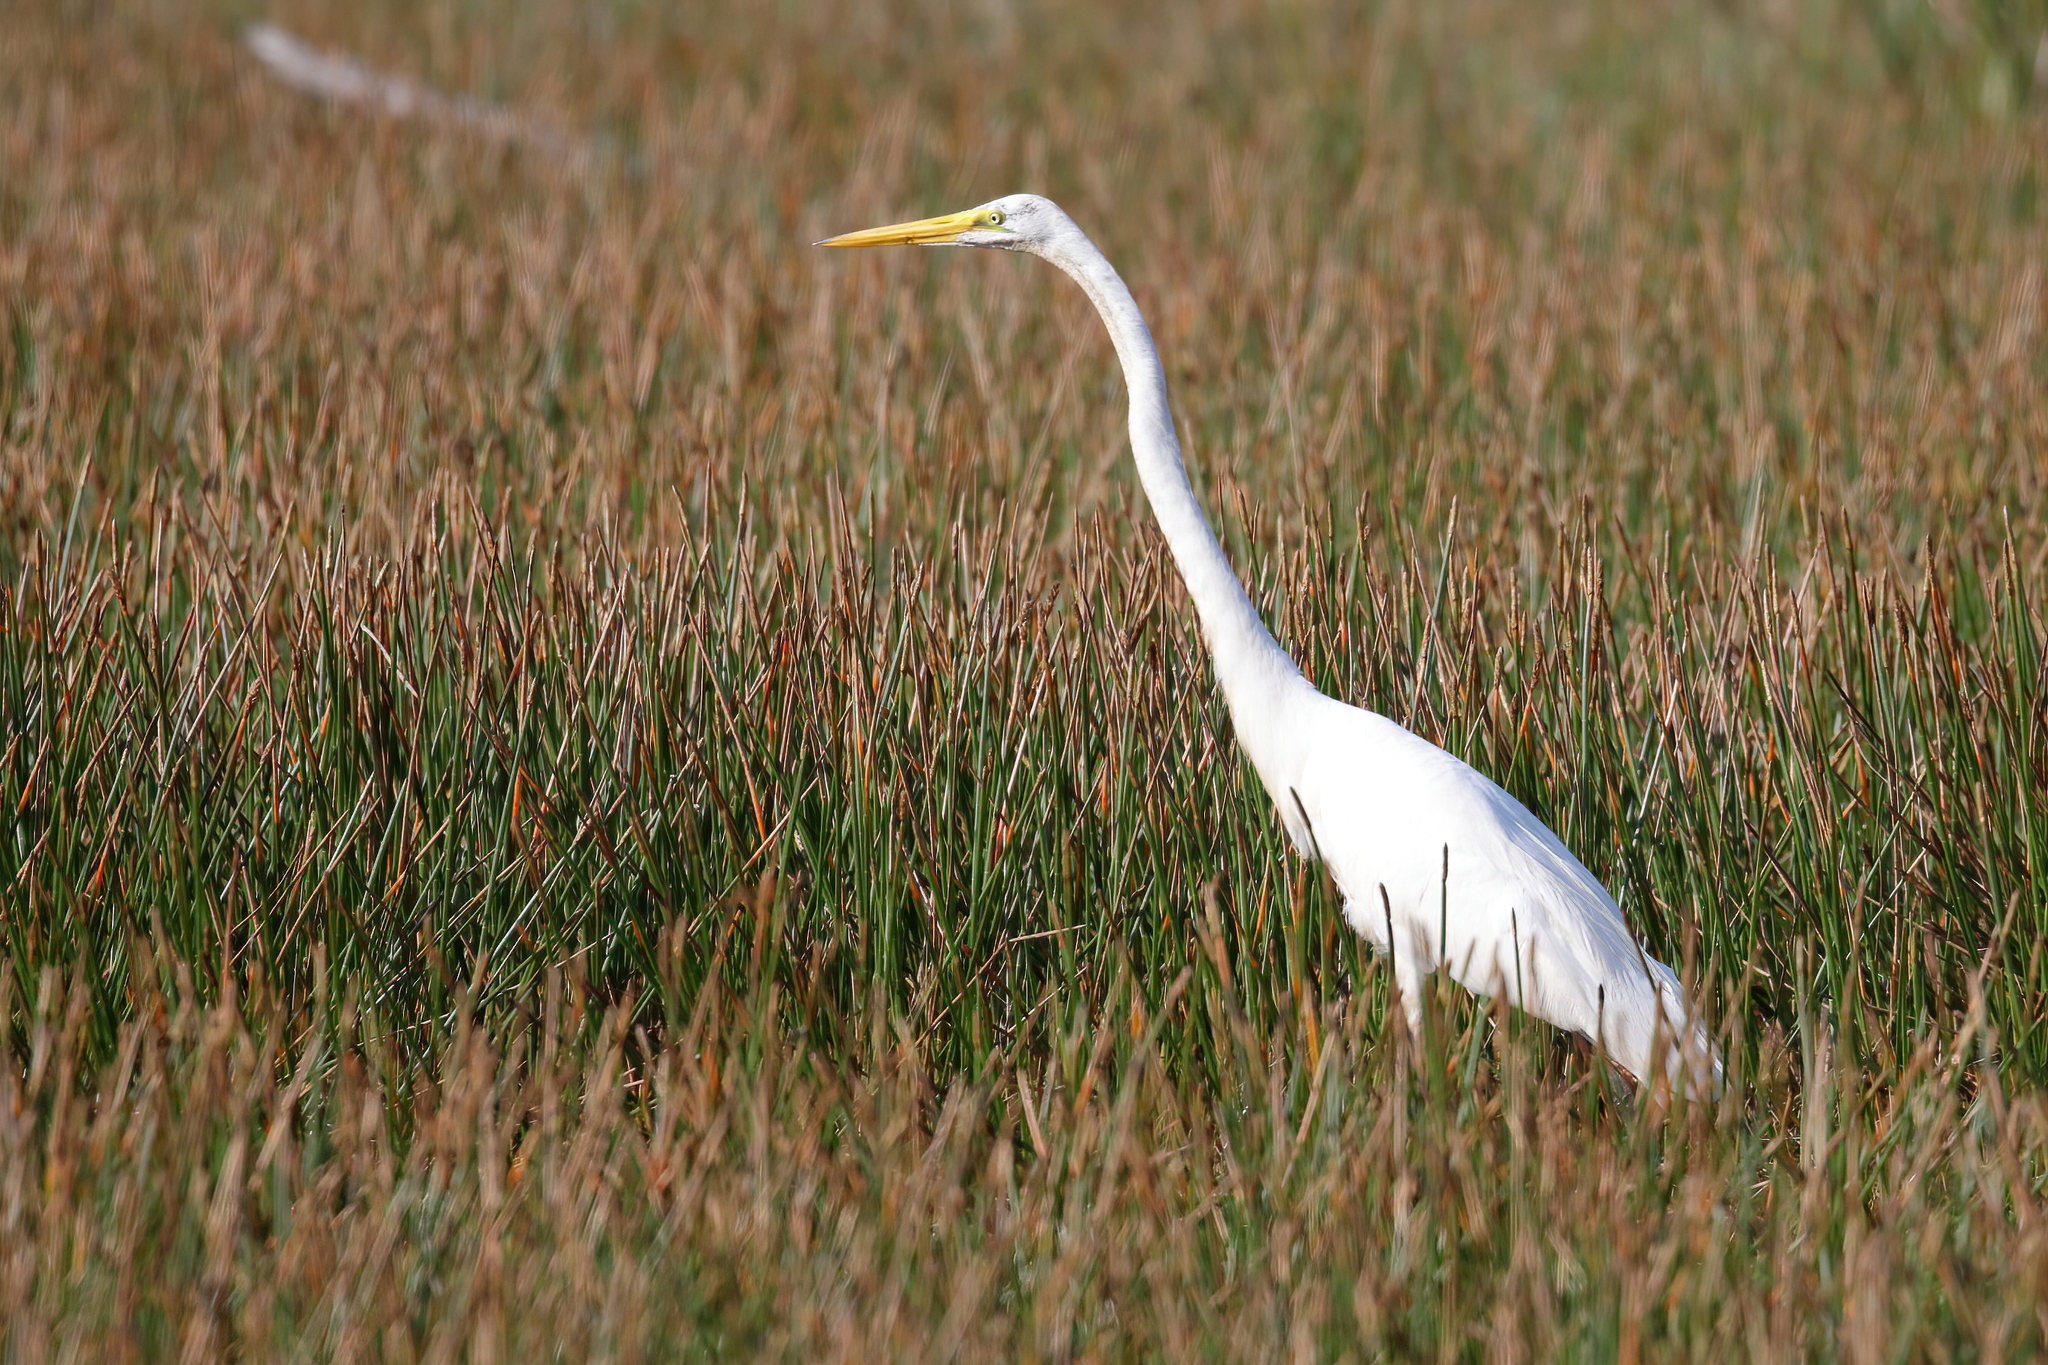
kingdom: Animalia
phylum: Chordata
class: Aves
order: Pelecaniformes
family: Ardeidae
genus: Ardea
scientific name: Ardea alba
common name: Great egret
